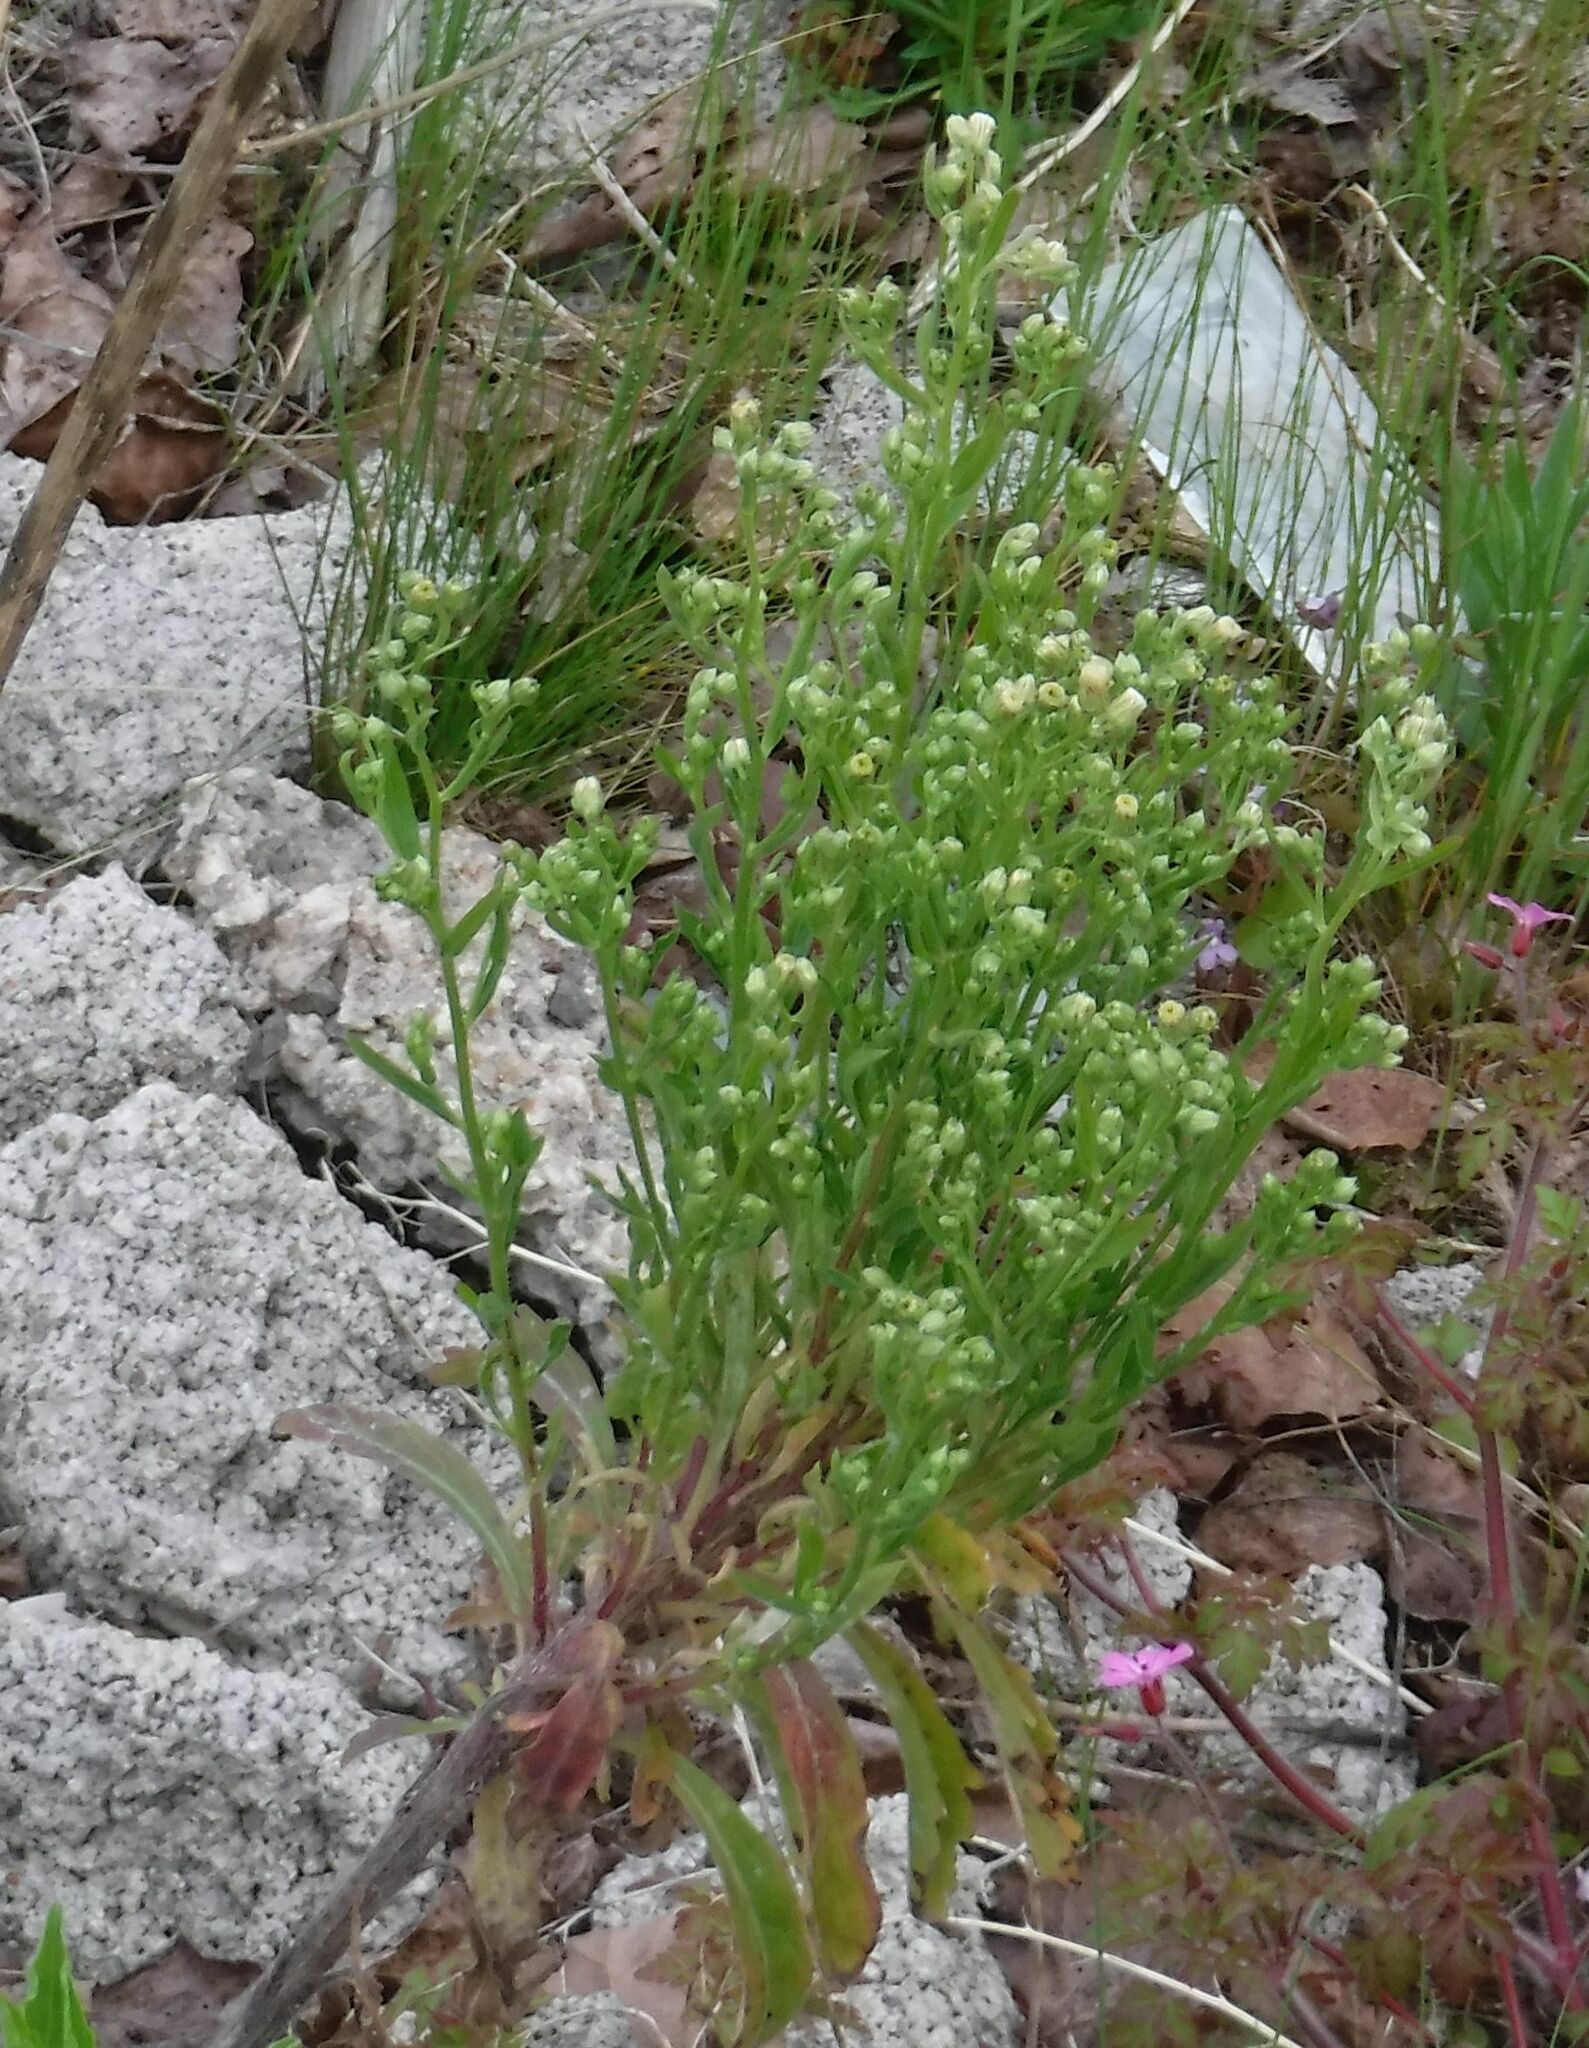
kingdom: Plantae
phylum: Tracheophyta
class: Magnoliopsida
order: Asterales
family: Asteraceae
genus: Erigeron
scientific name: Erigeron canadensis
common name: Canadian fleabane
